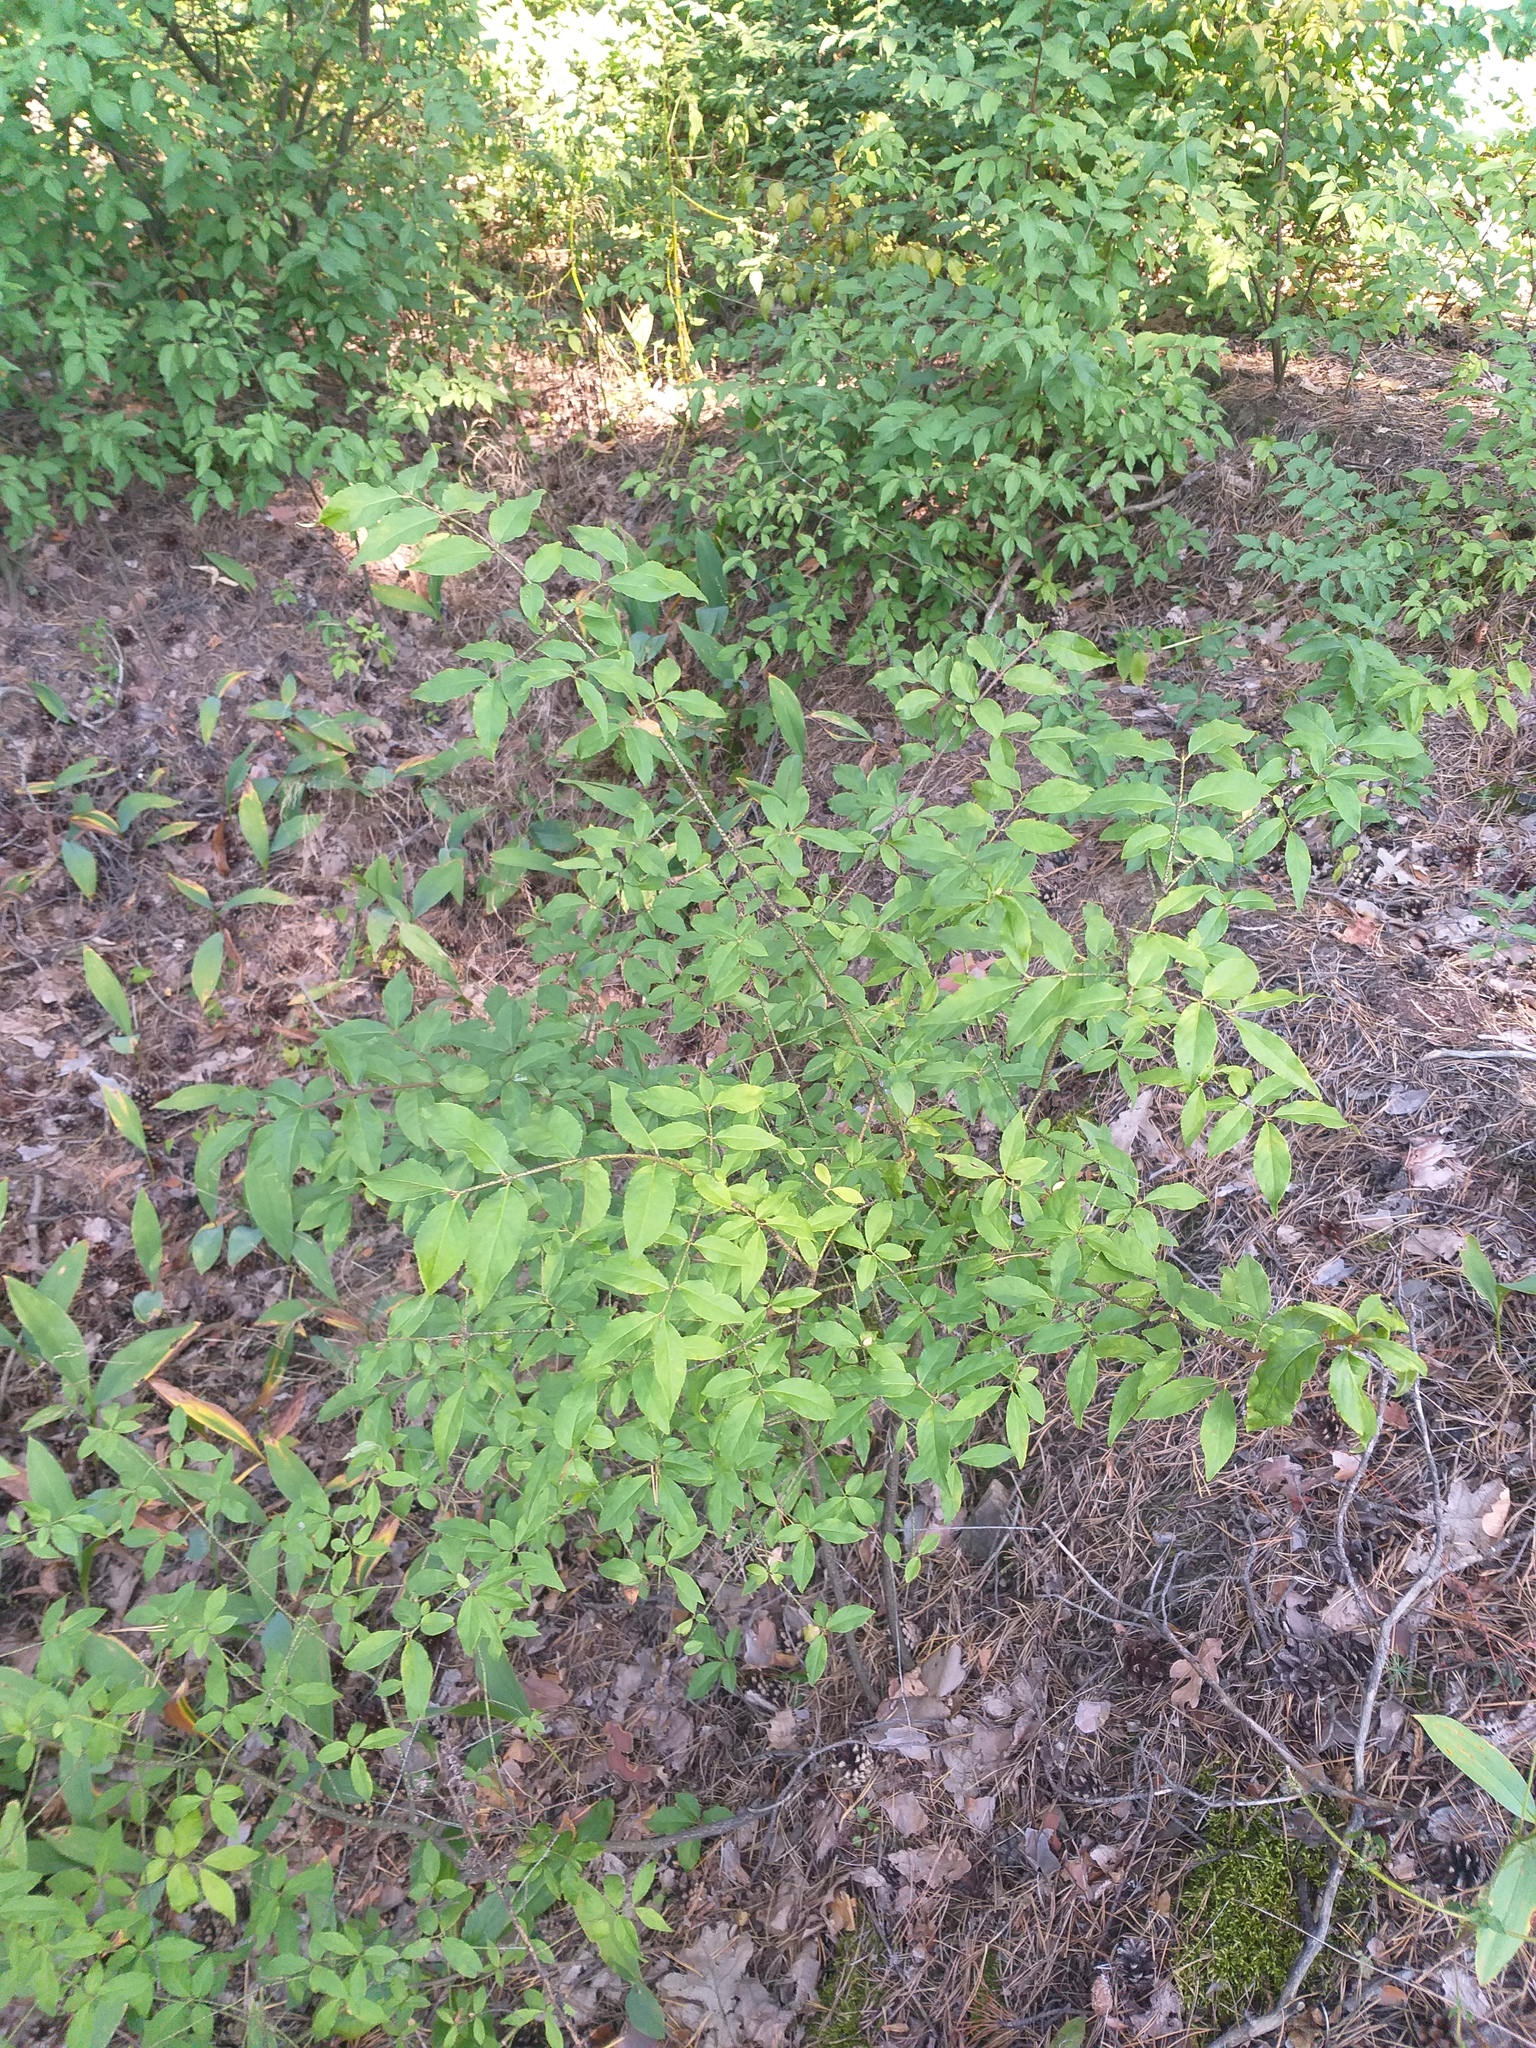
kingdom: Plantae
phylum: Tracheophyta
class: Magnoliopsida
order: Celastrales
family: Celastraceae
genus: Euonymus
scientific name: Euonymus verrucosus
